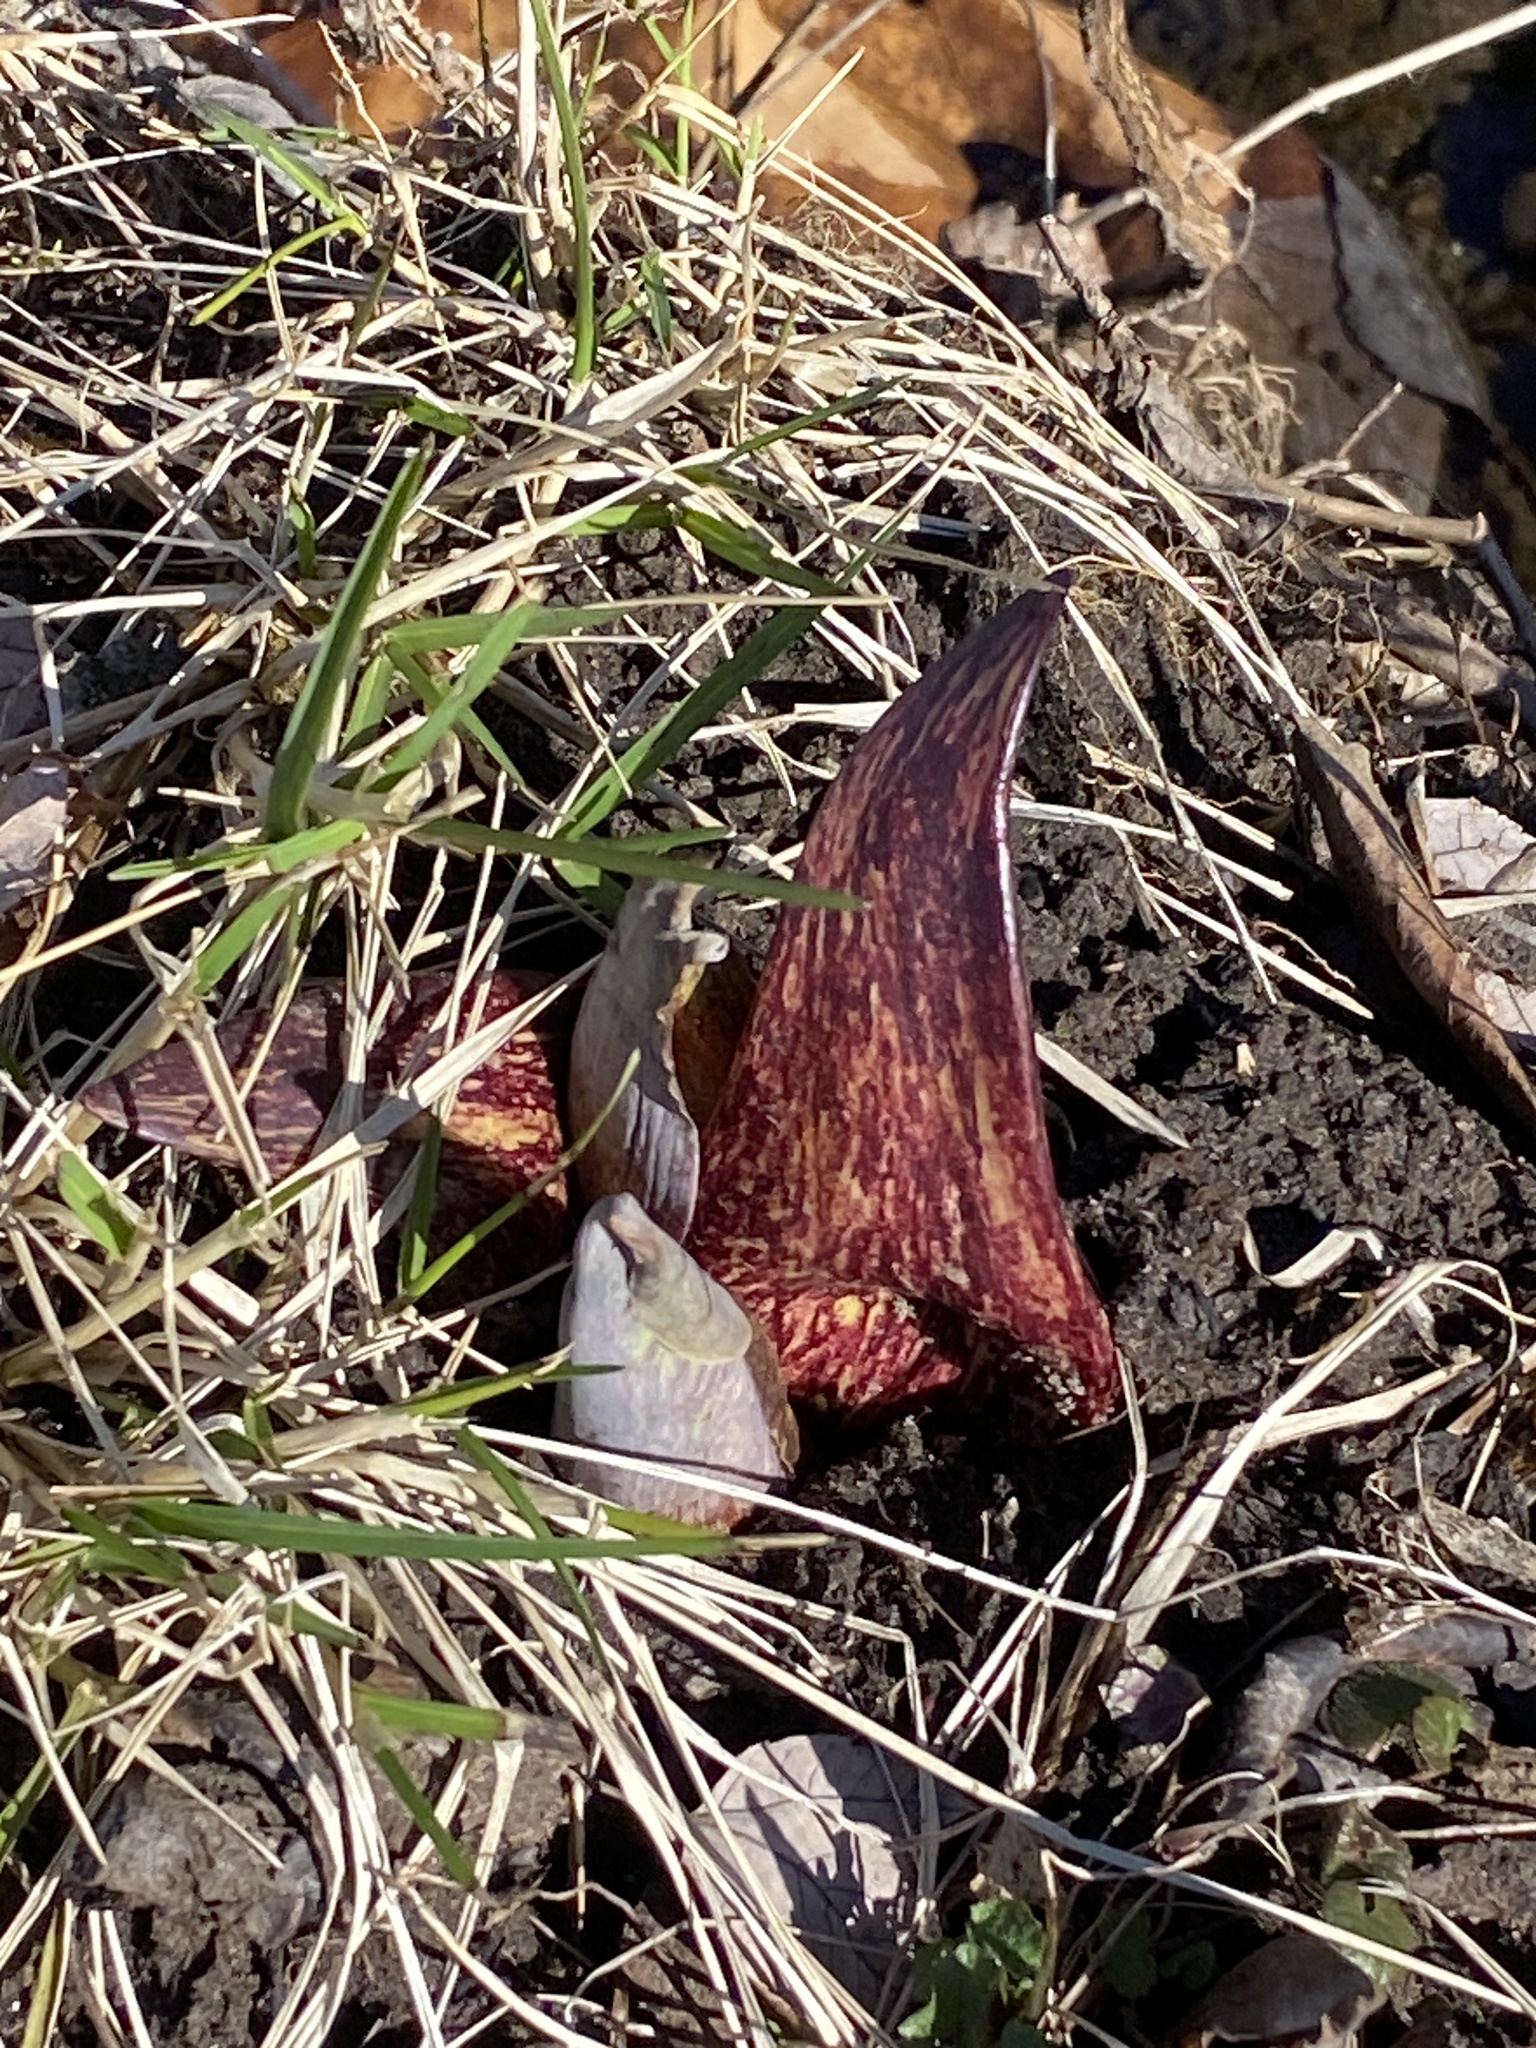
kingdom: Plantae
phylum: Tracheophyta
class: Liliopsida
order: Alismatales
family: Araceae
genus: Symplocarpus
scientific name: Symplocarpus foetidus
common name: Eastern skunk cabbage
